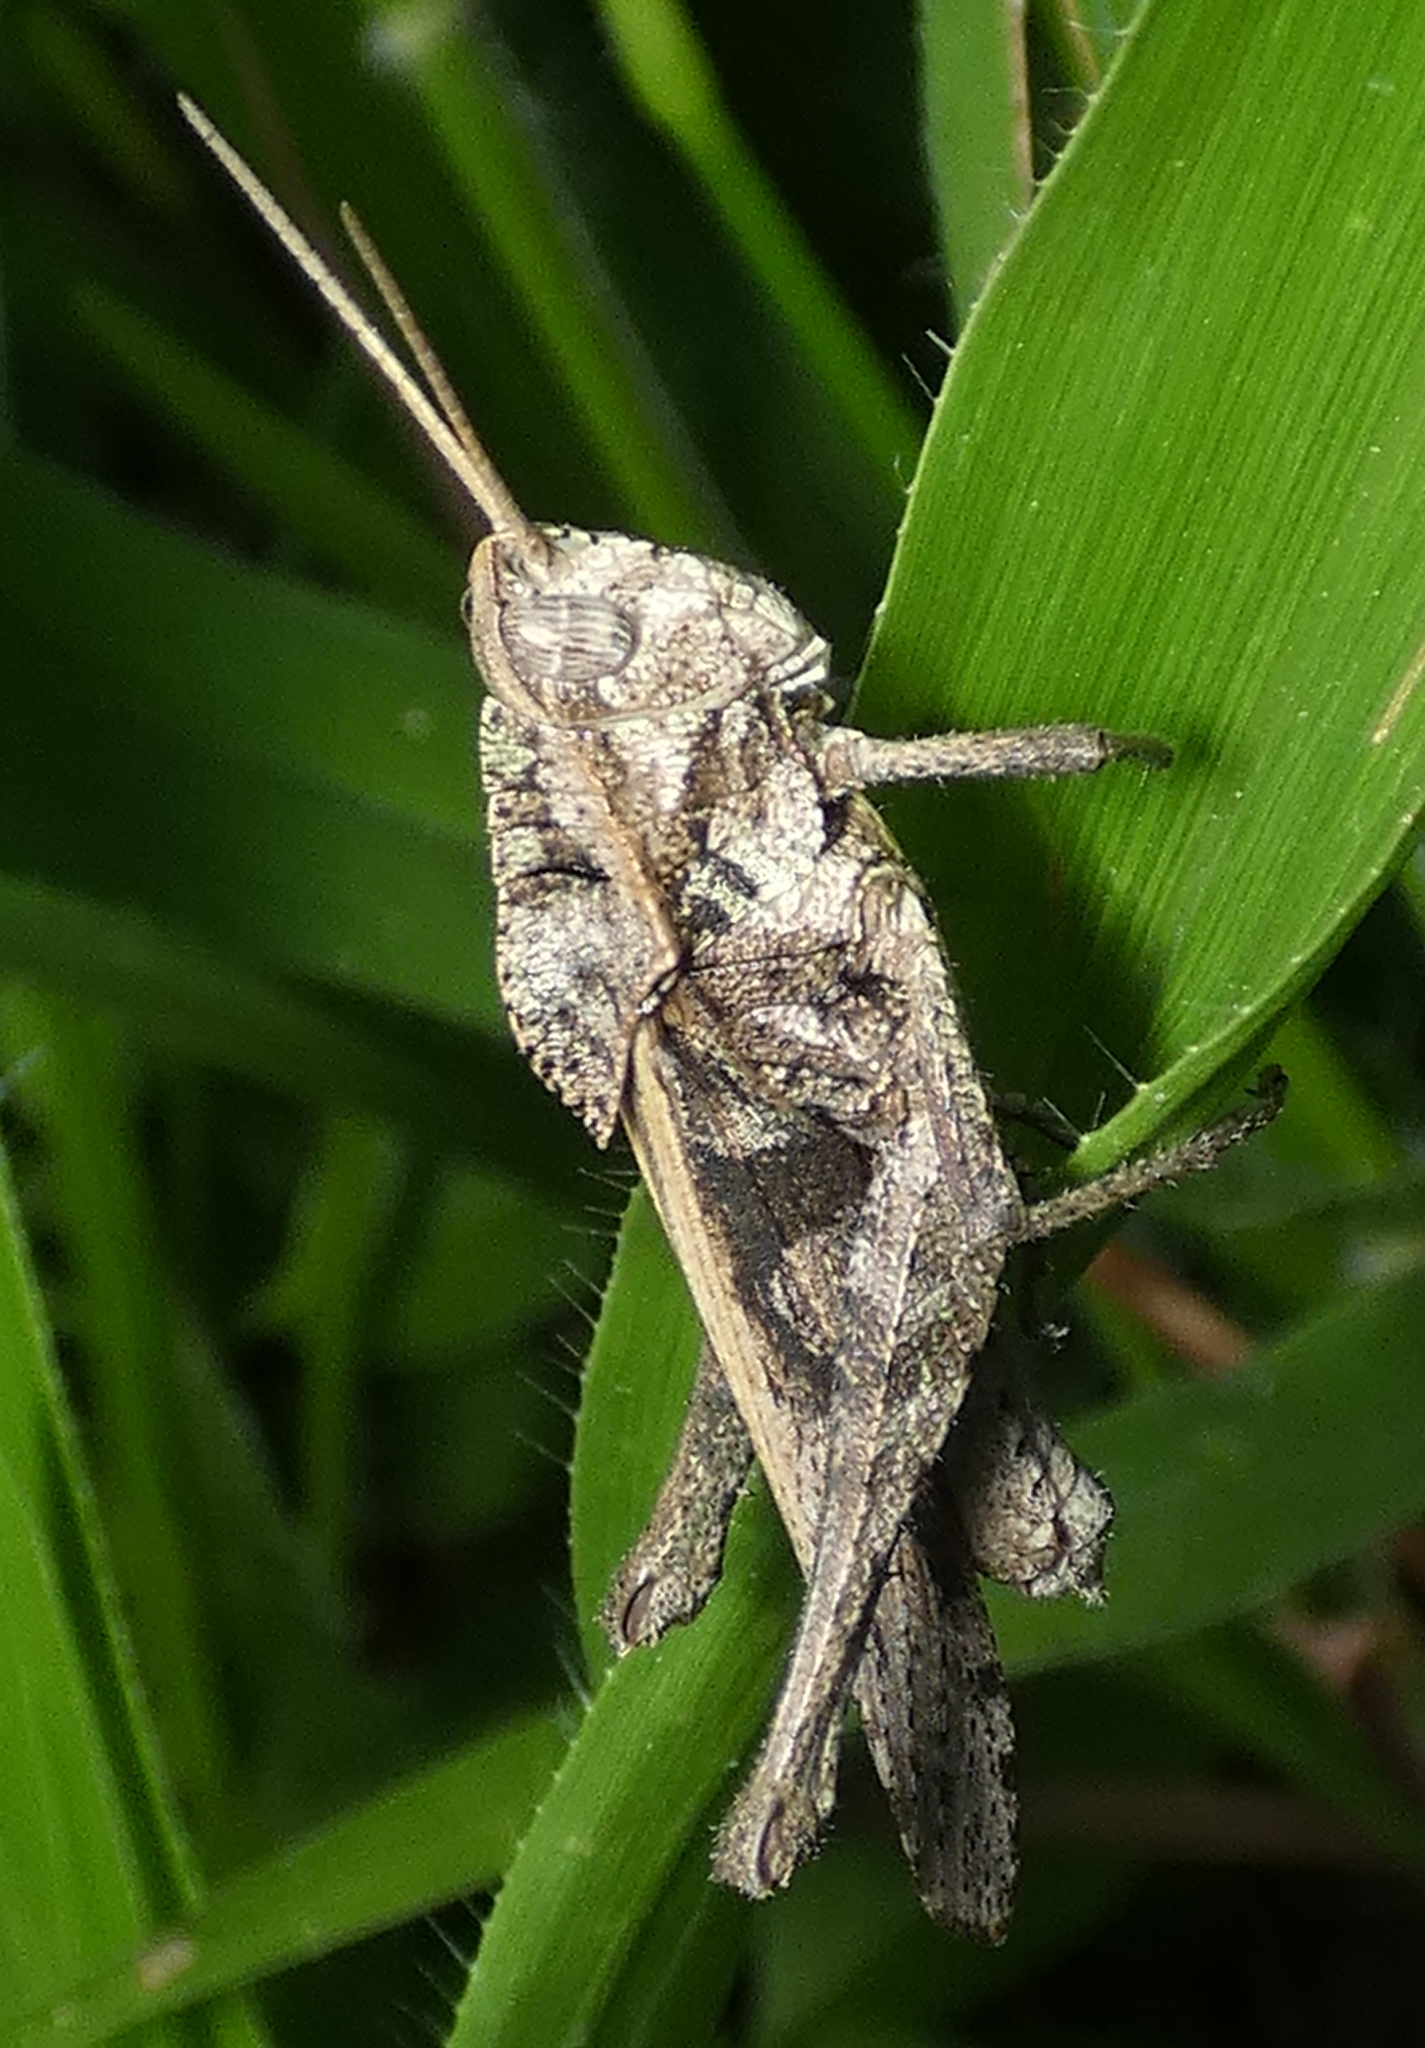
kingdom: Animalia
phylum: Arthropoda
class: Insecta
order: Orthoptera
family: Romaleidae
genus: Xyleus
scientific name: Xyleus discoideus
